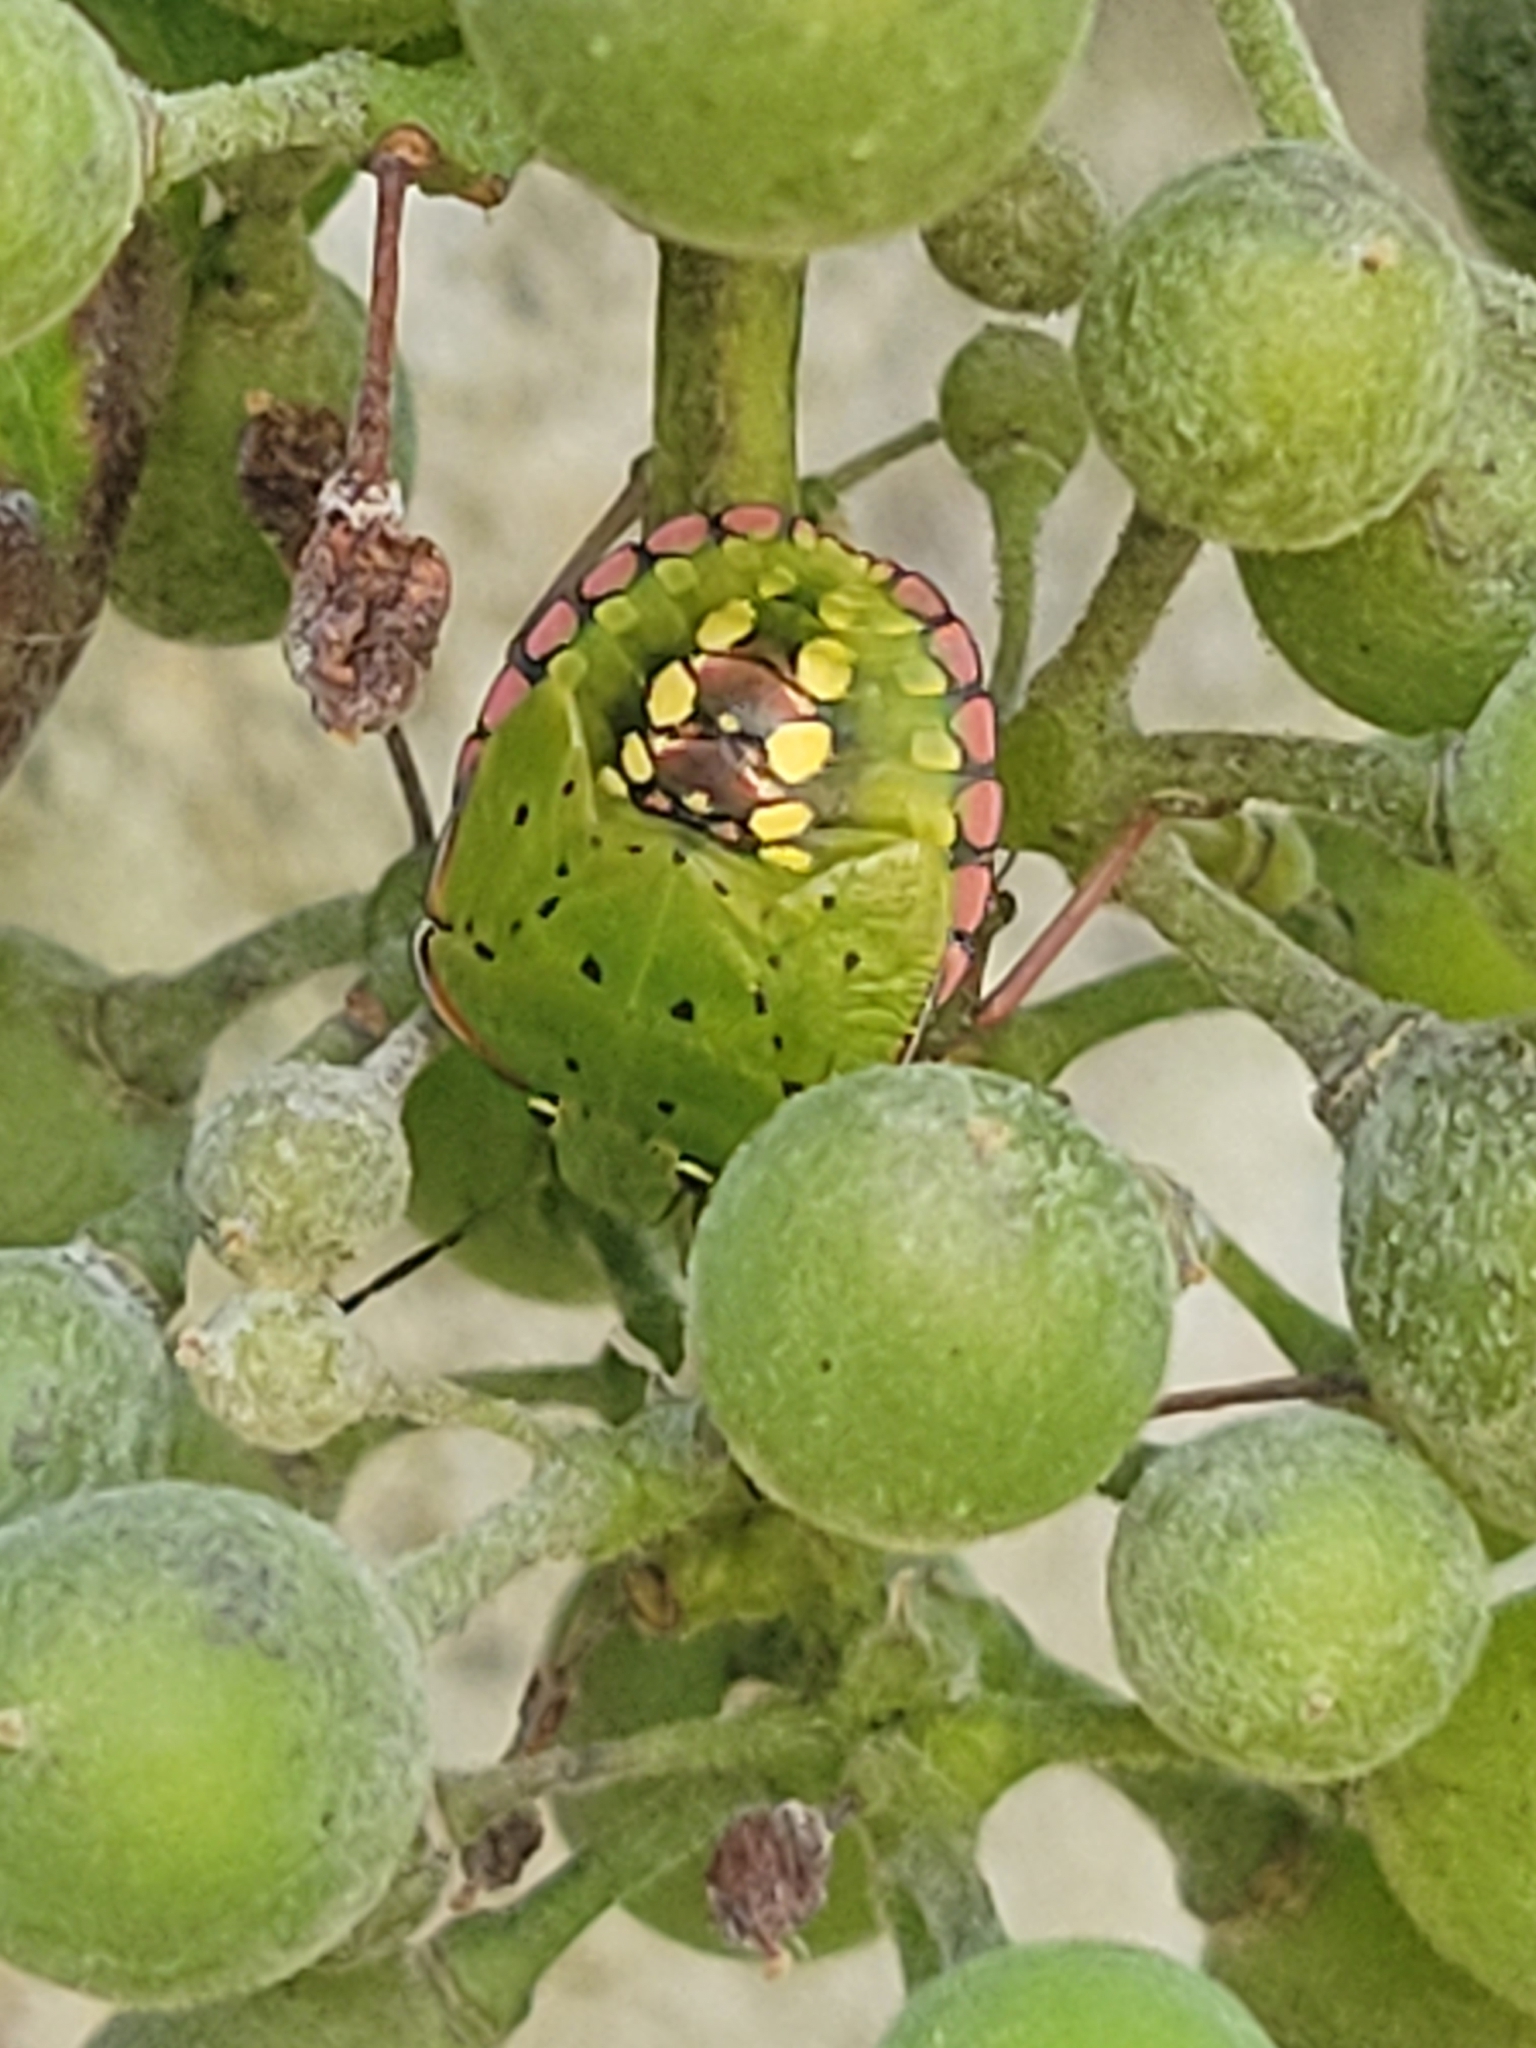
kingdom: Animalia
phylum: Arthropoda
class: Insecta
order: Hemiptera
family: Pentatomidae
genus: Nezara
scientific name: Nezara viridula
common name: Southern green stink bug
